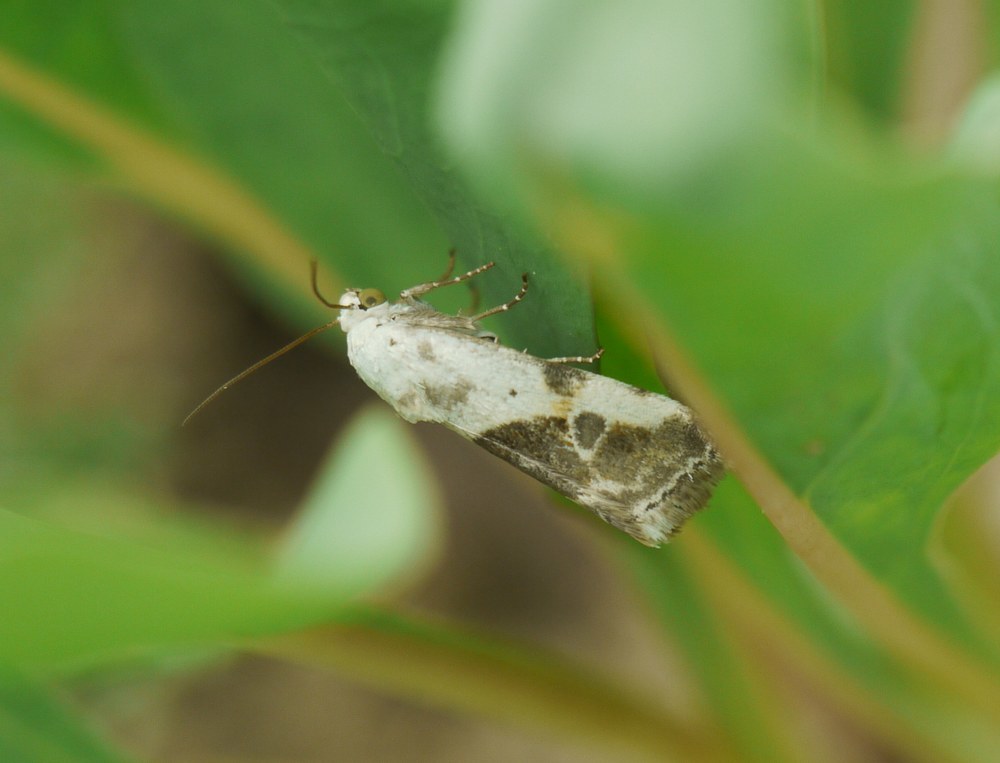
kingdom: Animalia
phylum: Arthropoda
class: Insecta
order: Lepidoptera
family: Noctuidae
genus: Acontia
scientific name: Acontia candefacta
